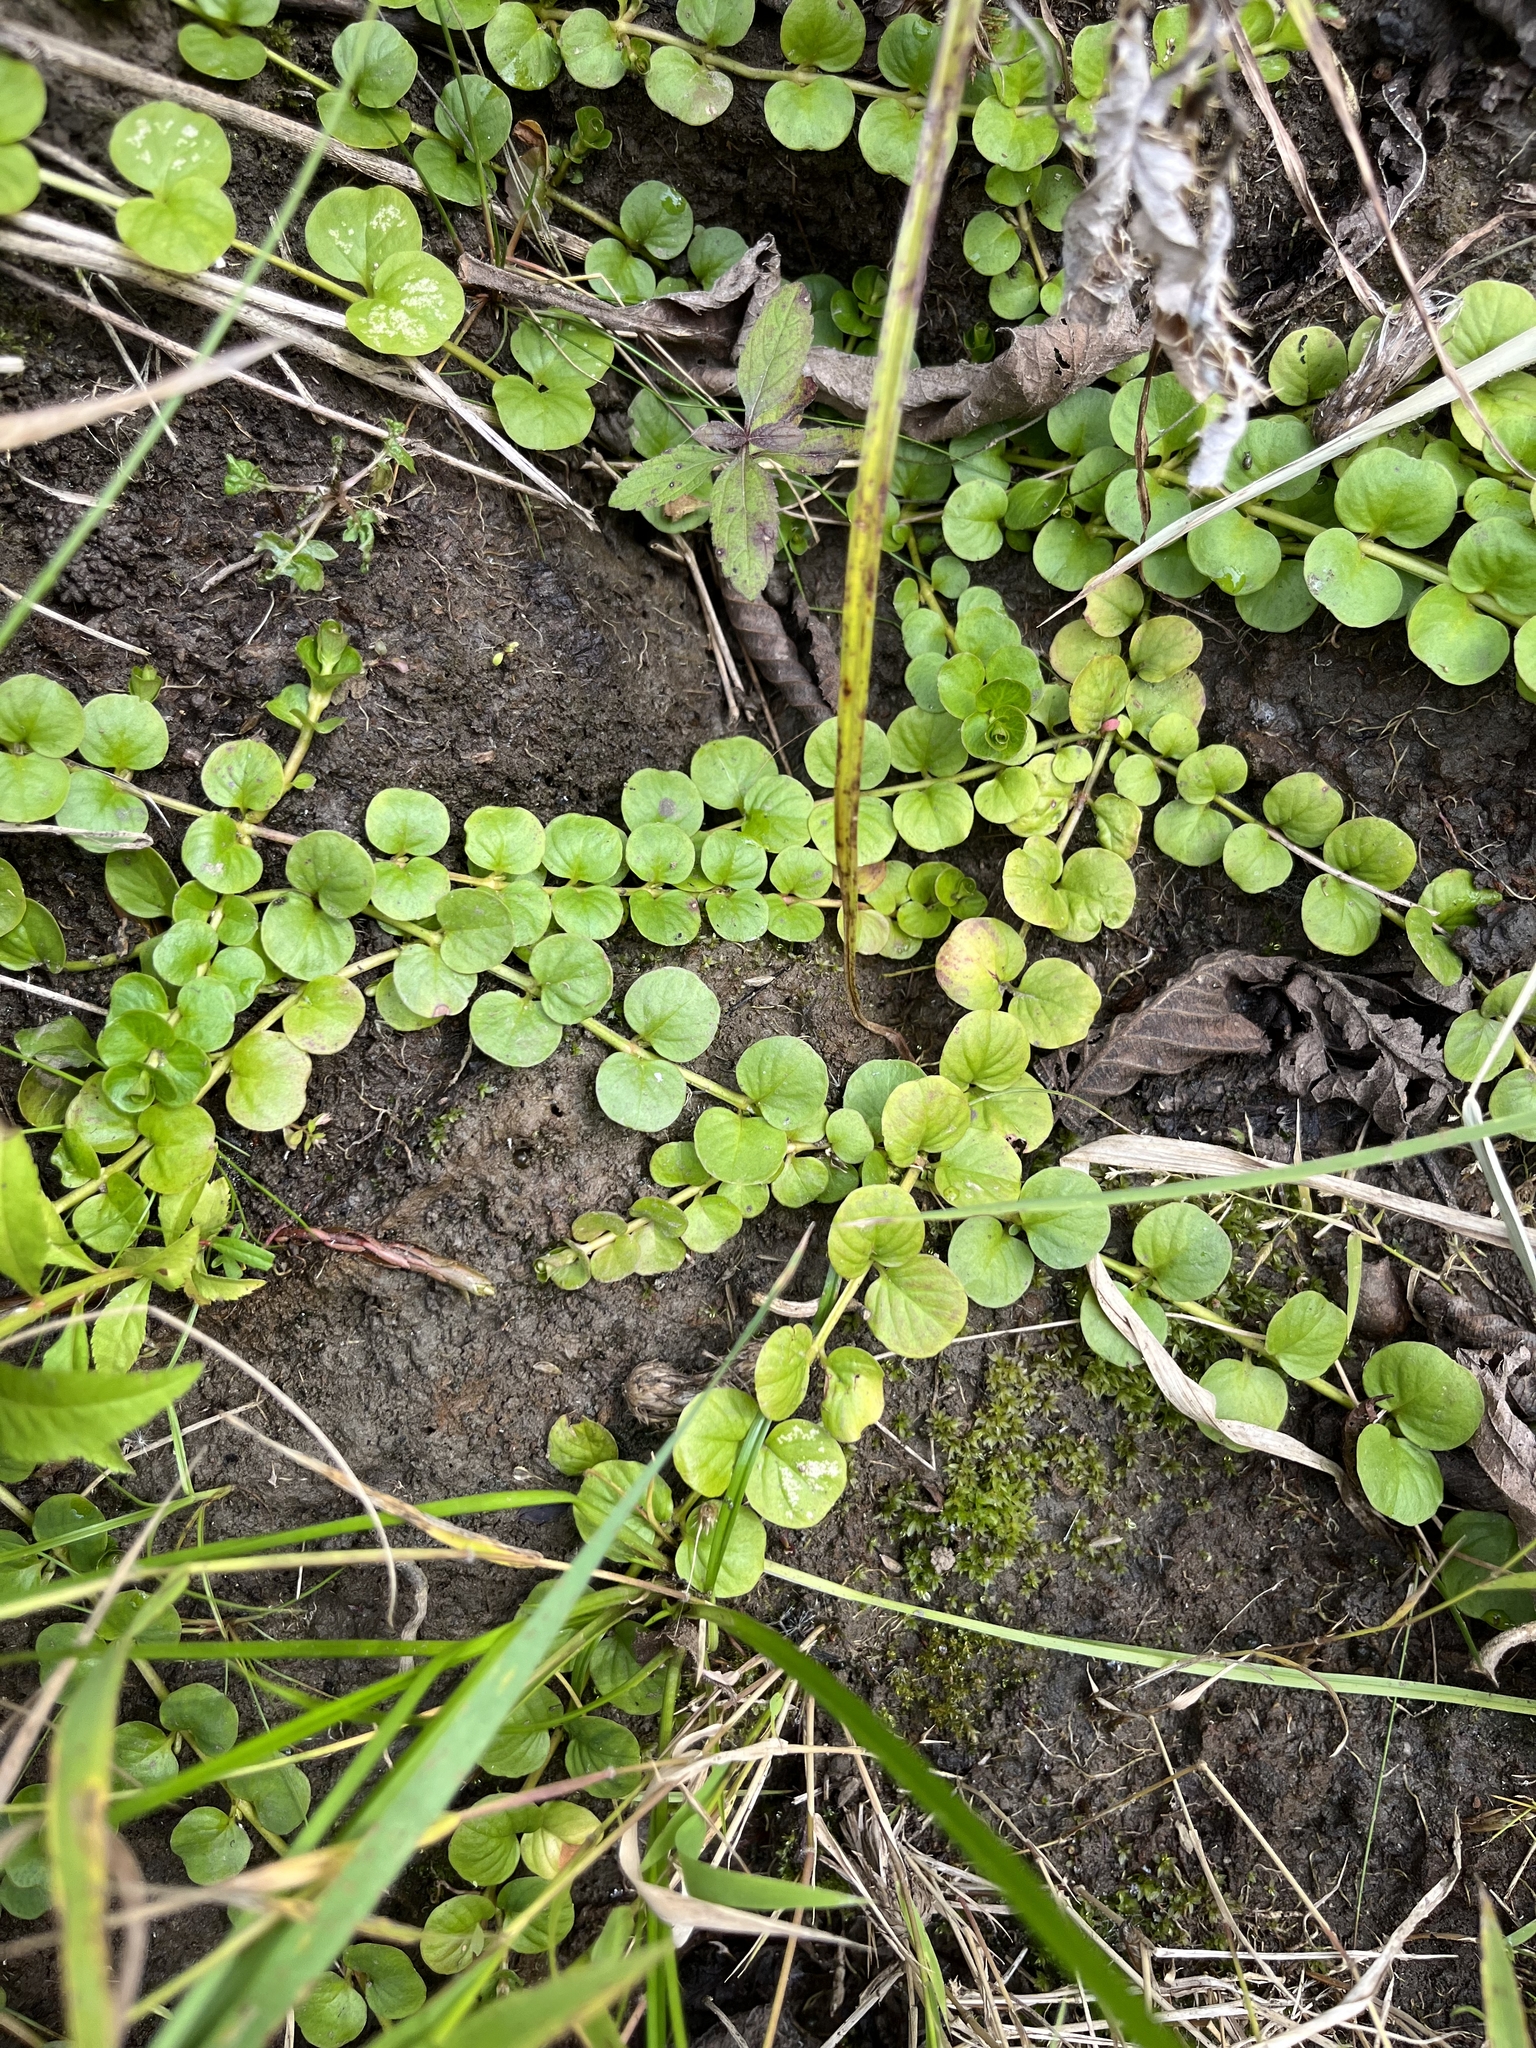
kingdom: Plantae
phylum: Tracheophyta
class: Magnoliopsida
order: Ericales
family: Primulaceae
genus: Lysimachia
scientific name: Lysimachia nummularia
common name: Moneywort
